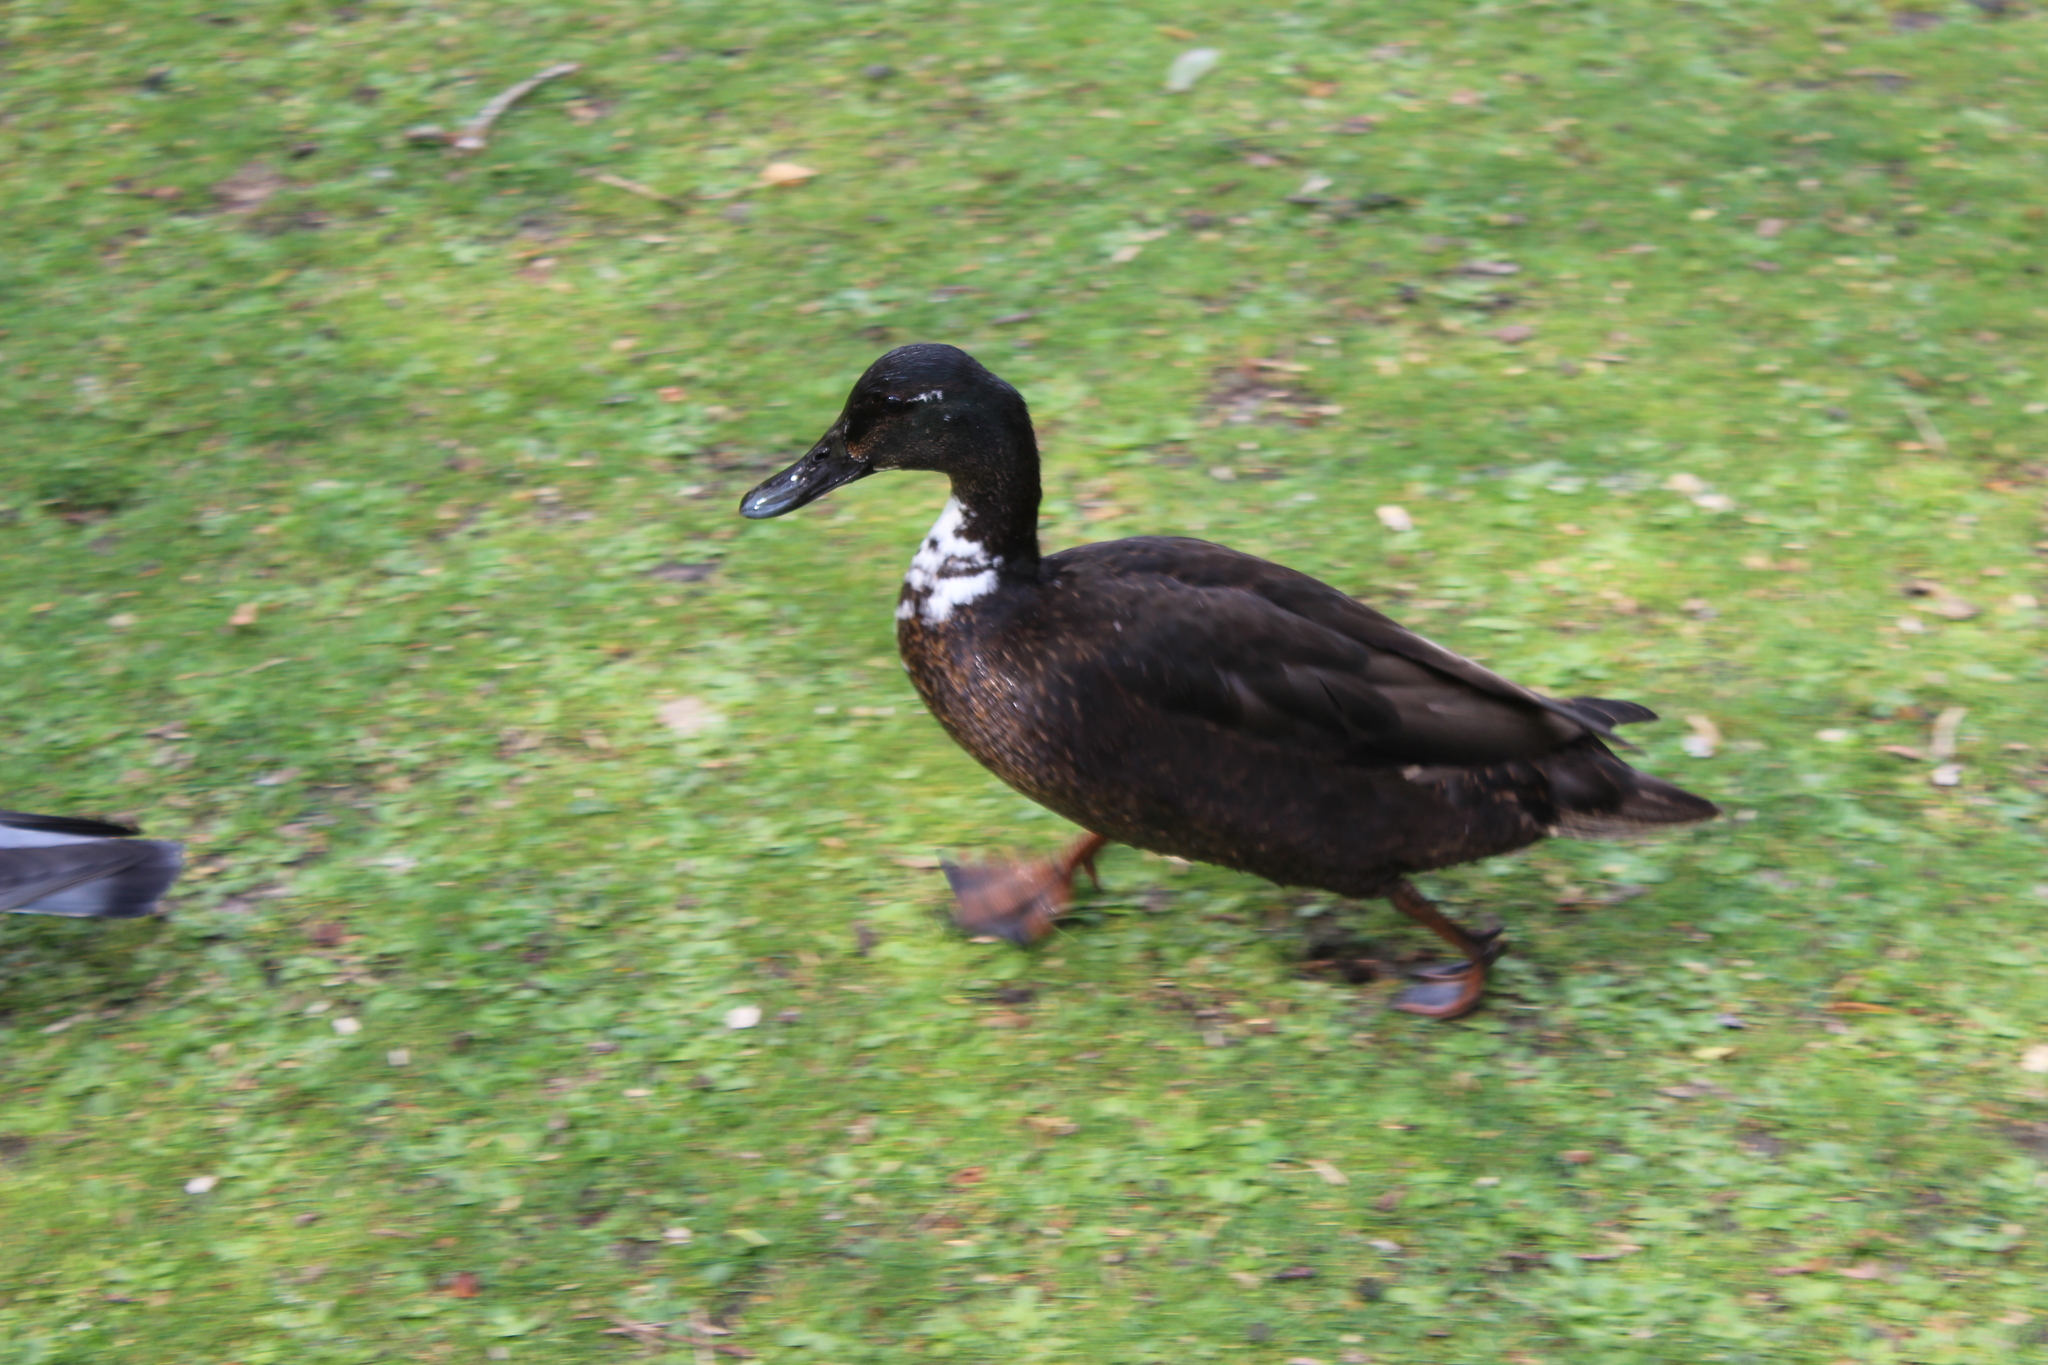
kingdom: Animalia
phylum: Chordata
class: Aves
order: Anseriformes
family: Anatidae
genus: Anas
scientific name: Anas platyrhynchos
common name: Mallard
